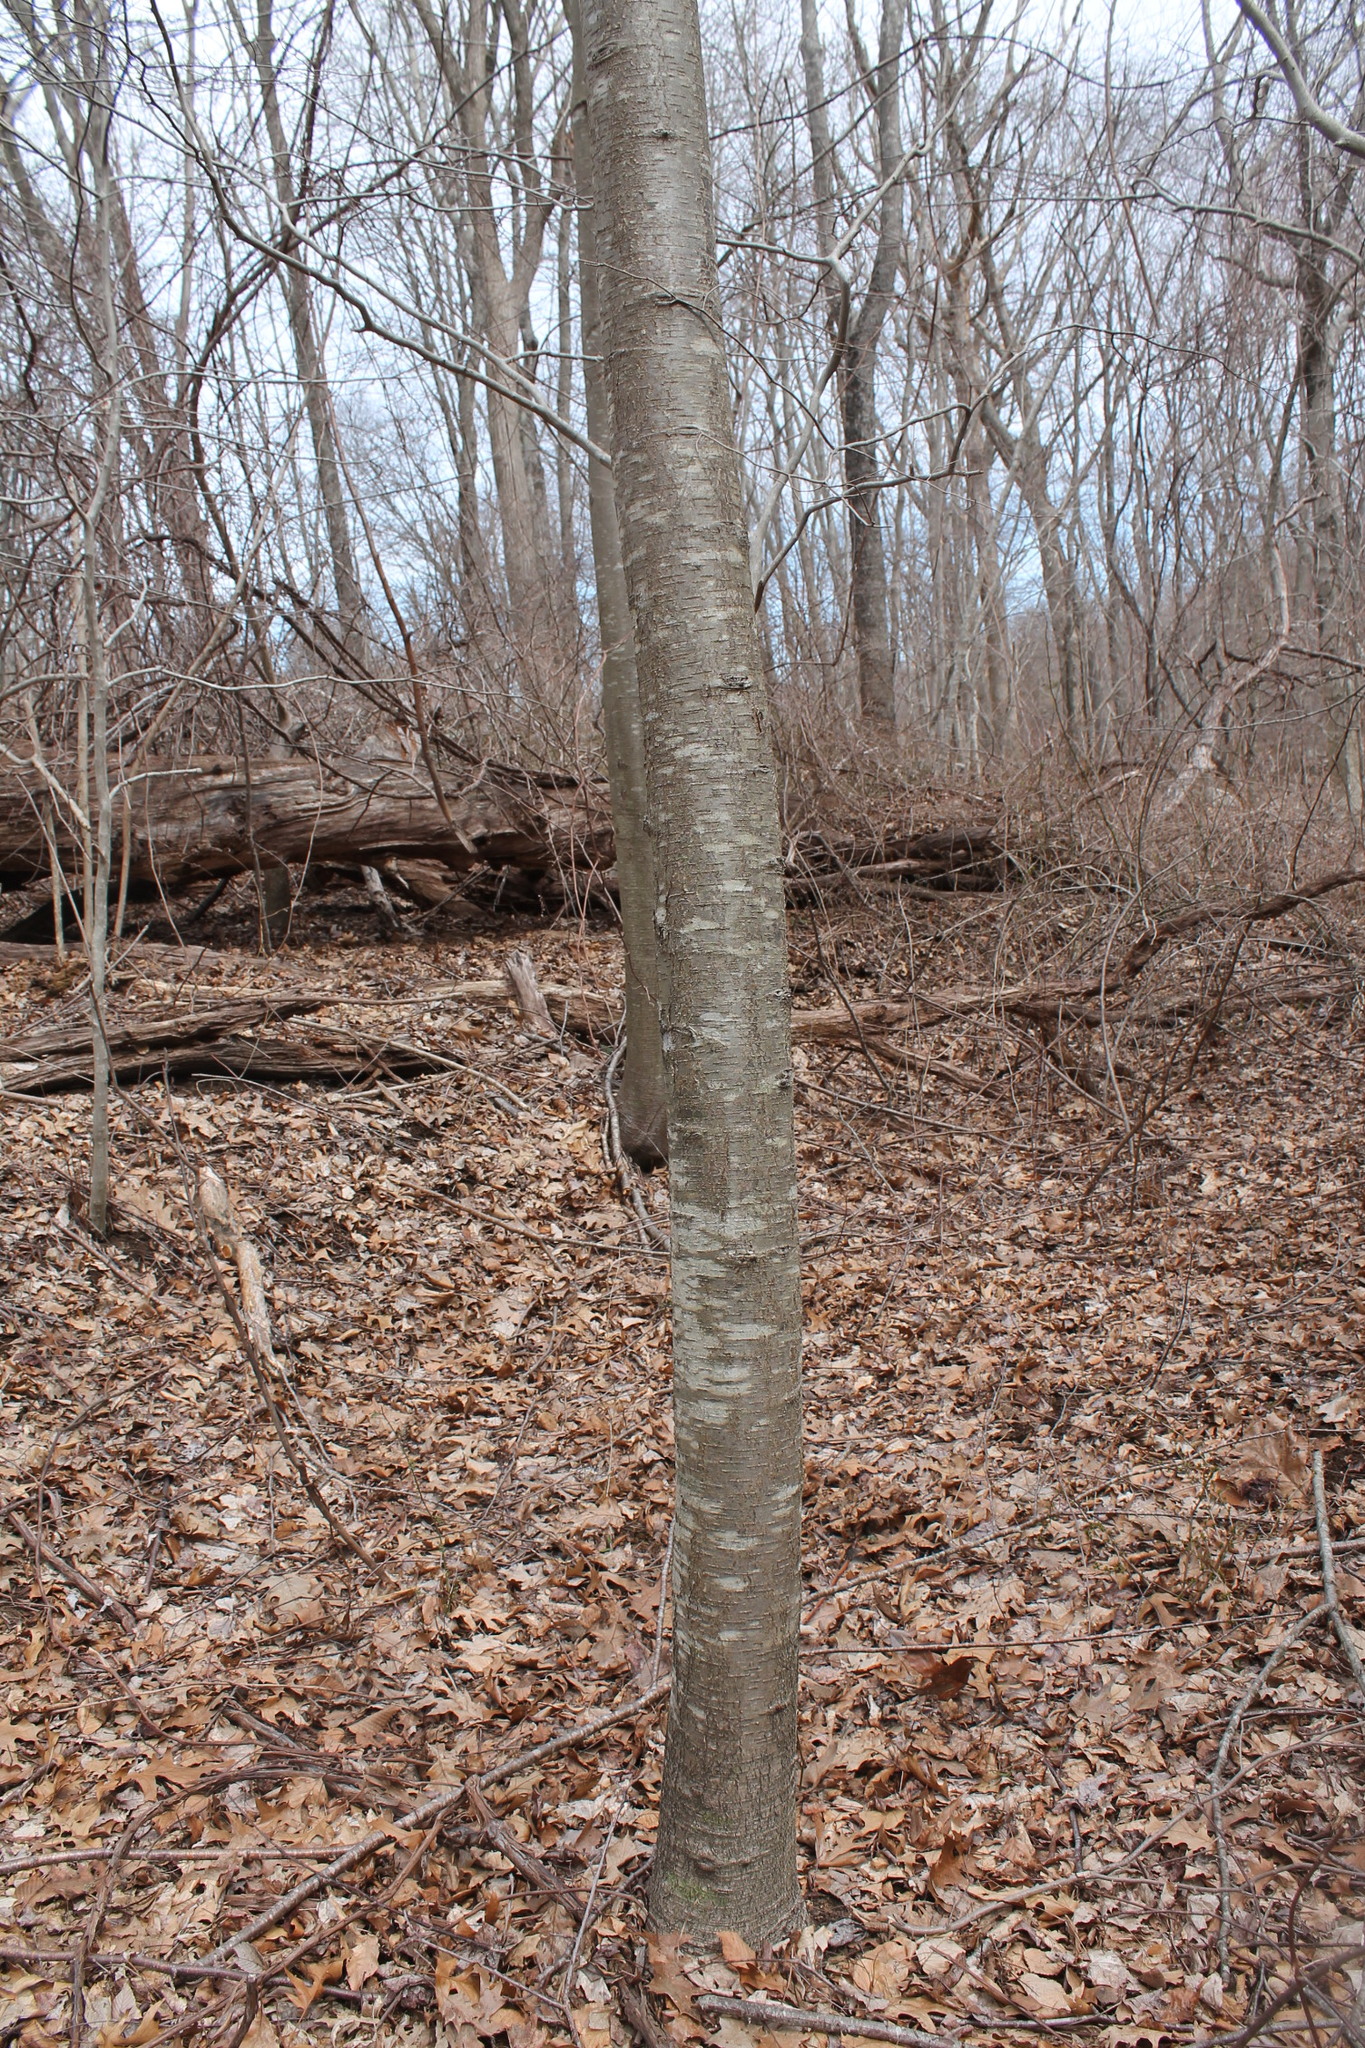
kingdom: Plantae
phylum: Tracheophyta
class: Magnoliopsida
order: Fagales
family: Betulaceae
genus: Betula
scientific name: Betula lenta
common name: Black birch
